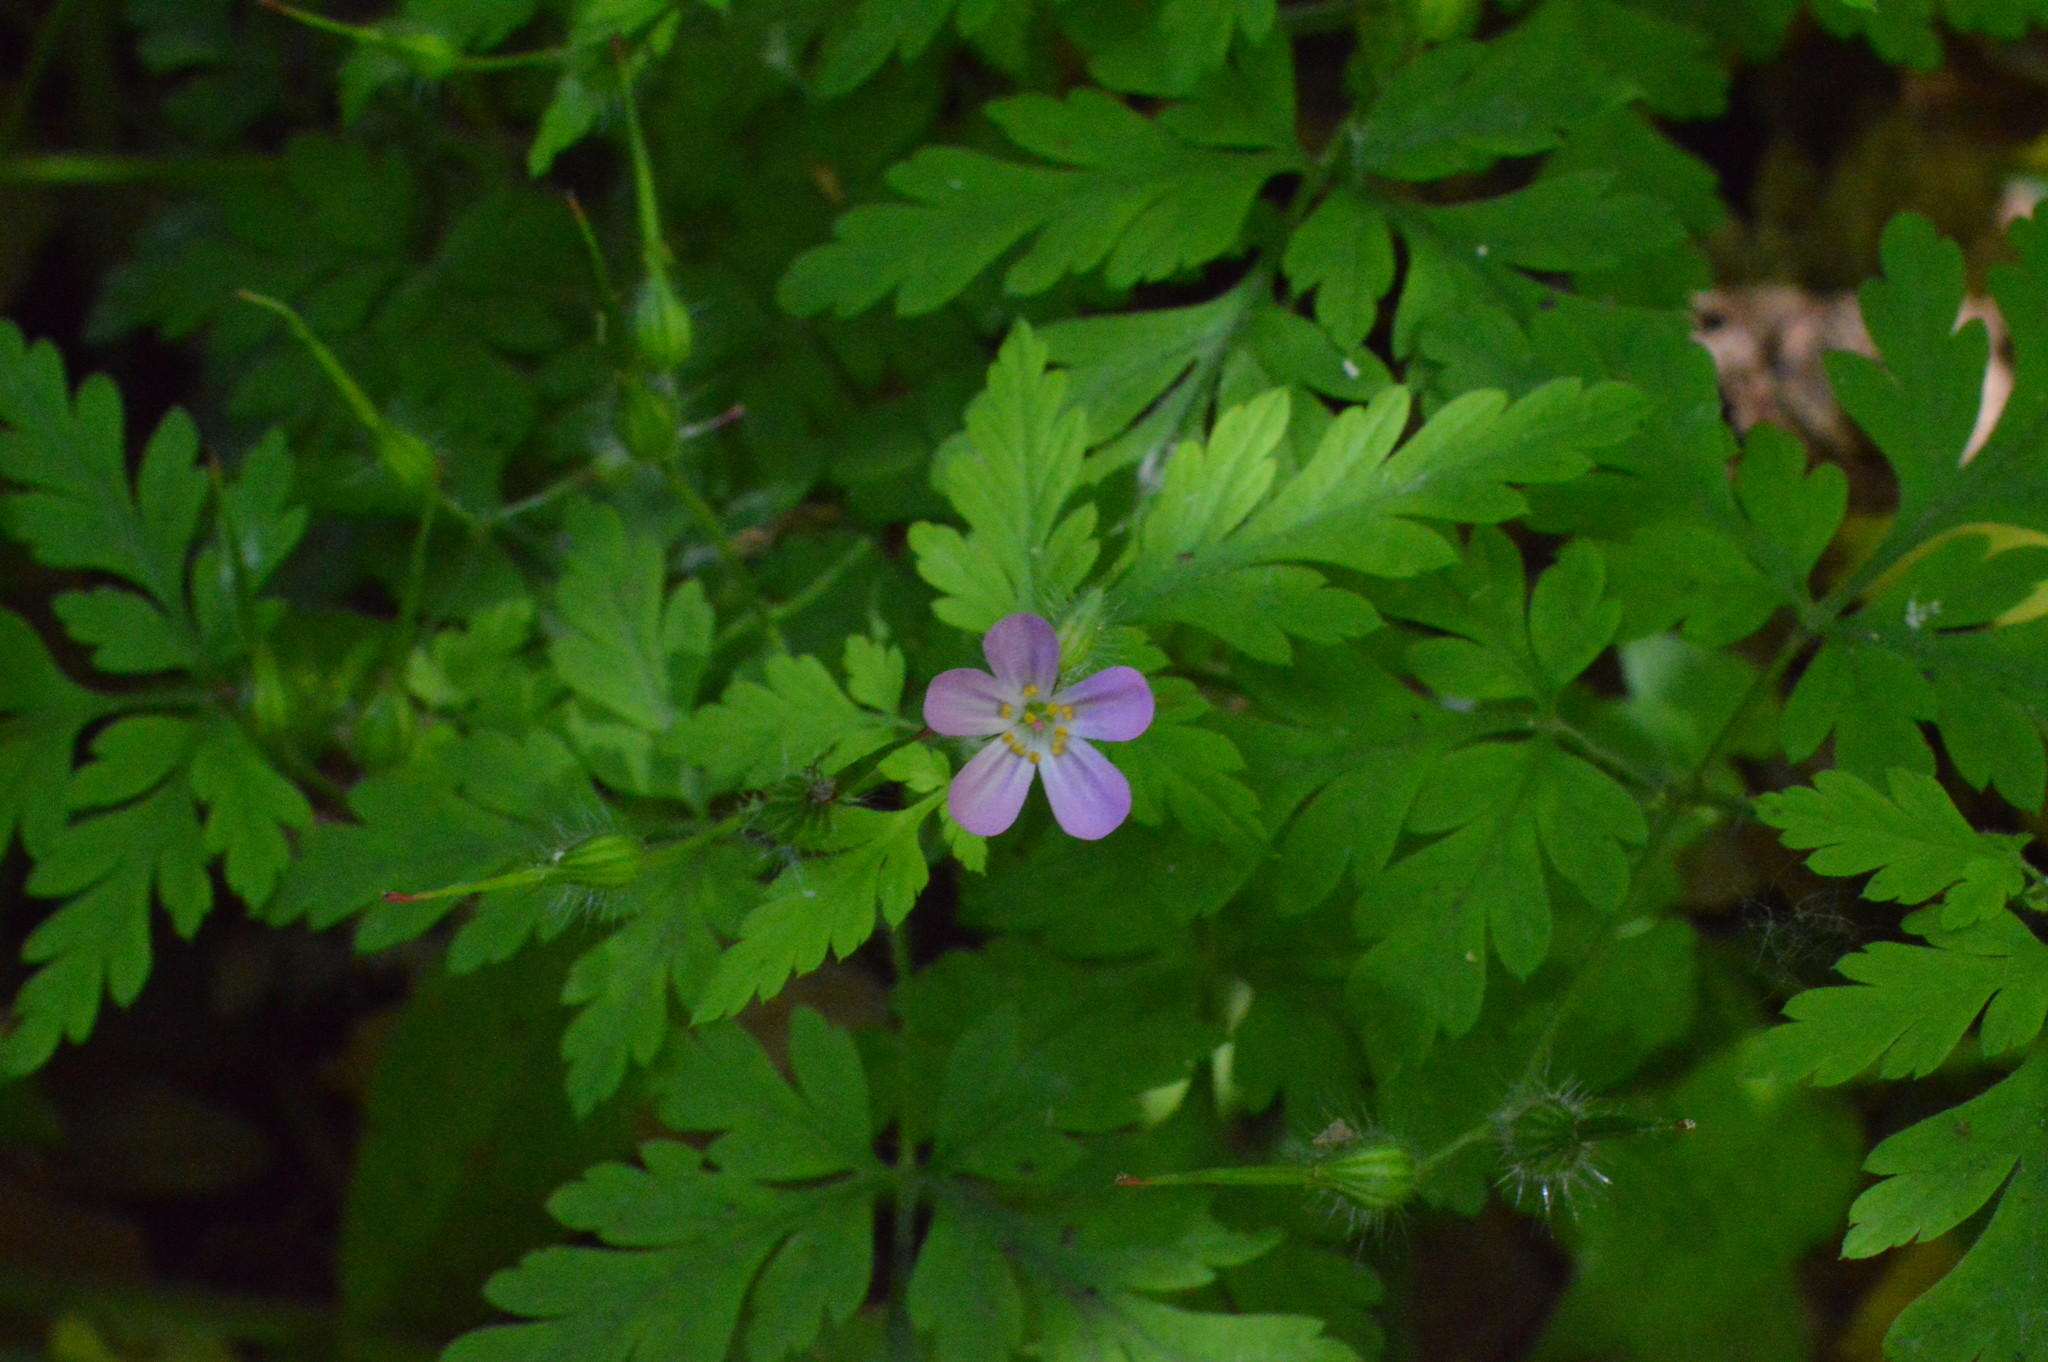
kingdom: Plantae
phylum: Tracheophyta
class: Magnoliopsida
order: Geraniales
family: Geraniaceae
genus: Geranium
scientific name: Geranium robertianum
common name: Herb-robert
